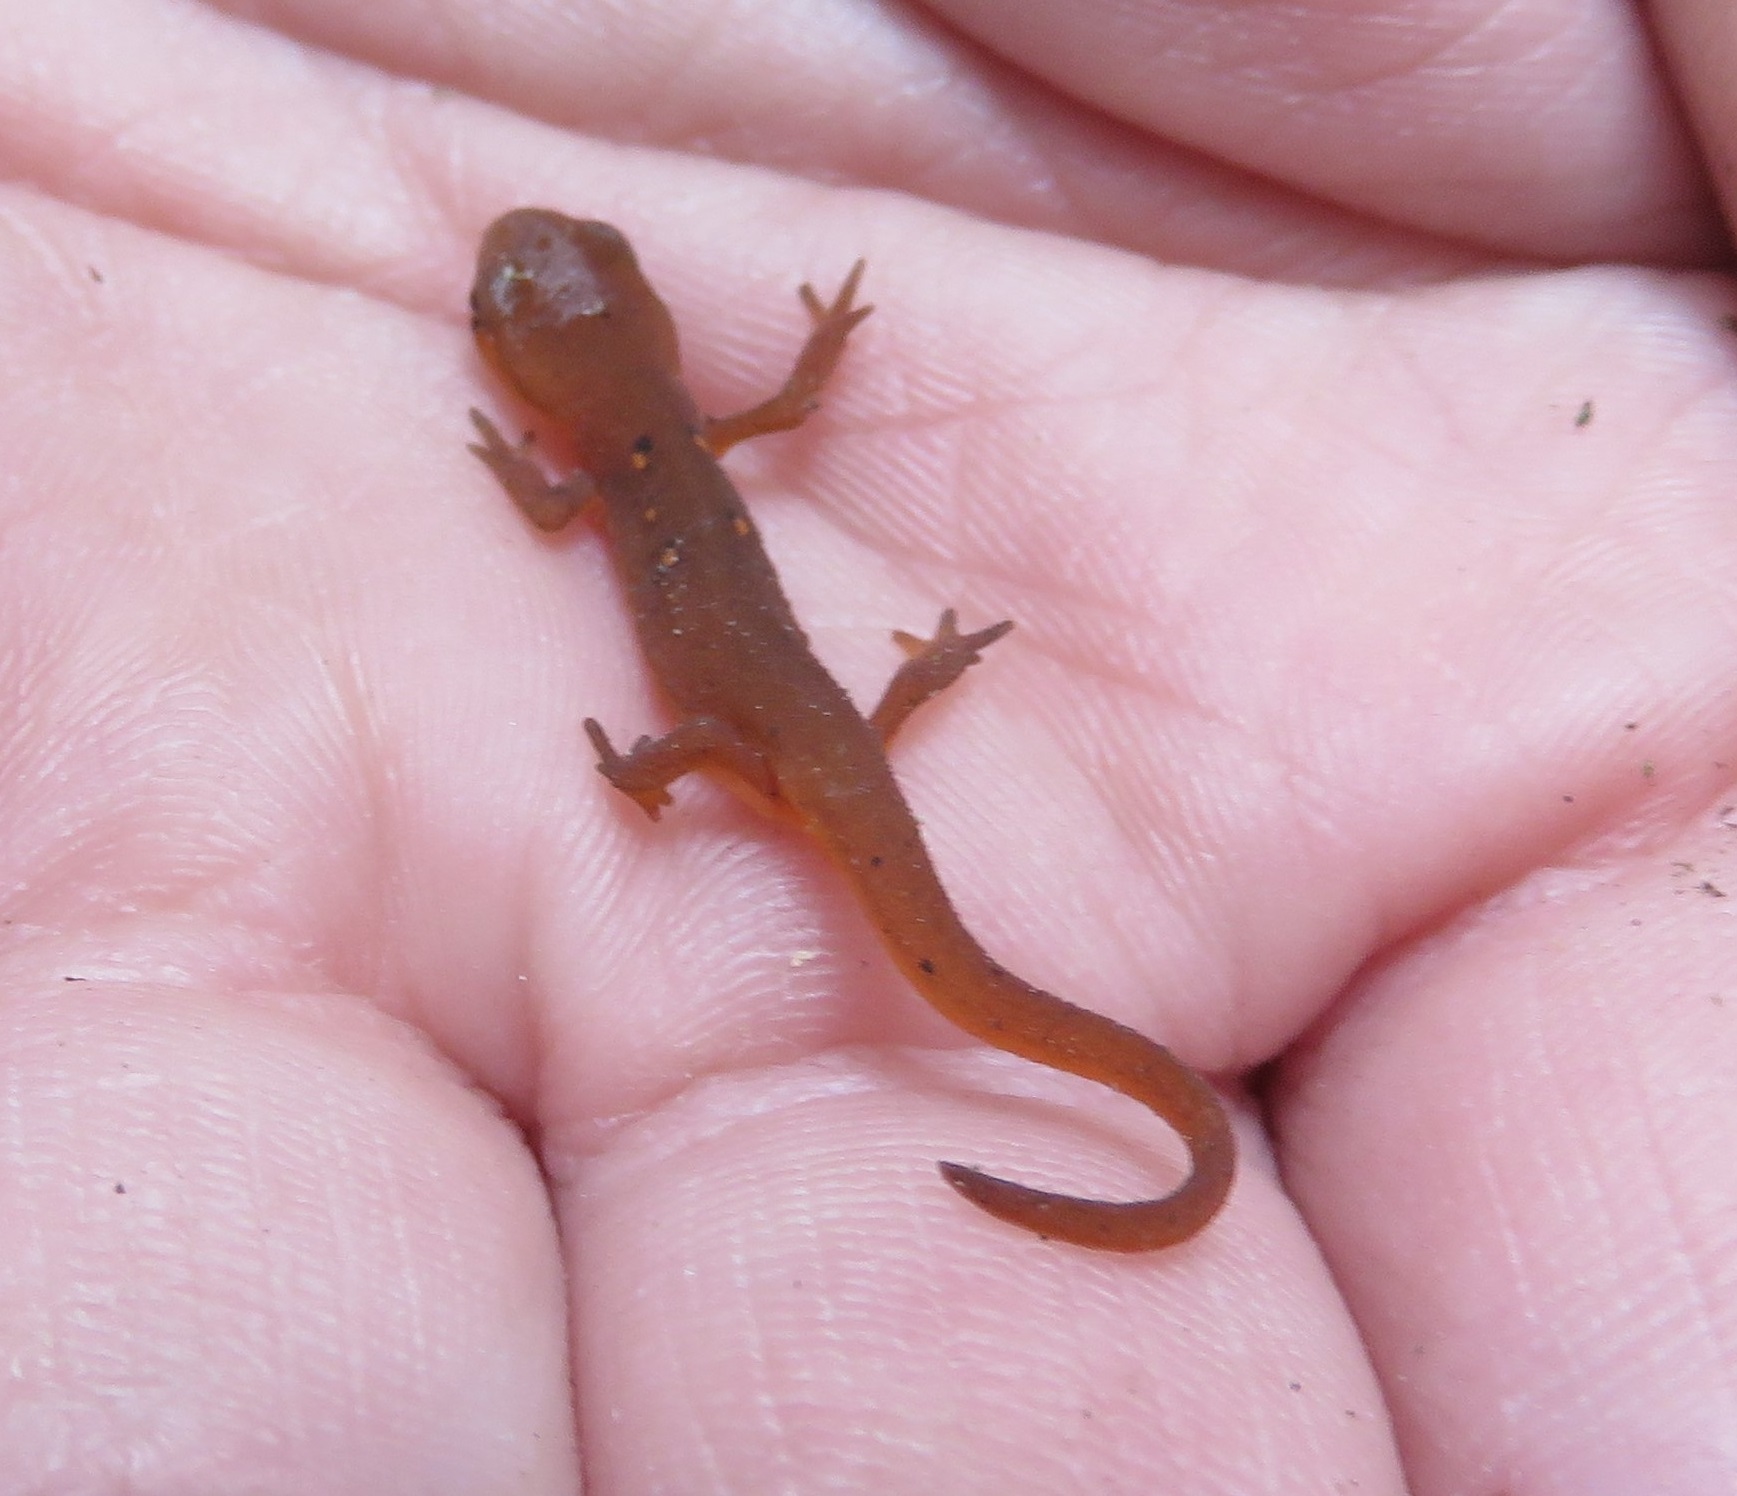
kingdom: Animalia
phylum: Chordata
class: Amphibia
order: Caudata
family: Salamandridae
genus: Notophthalmus
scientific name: Notophthalmus viridescens
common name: Eastern newt
